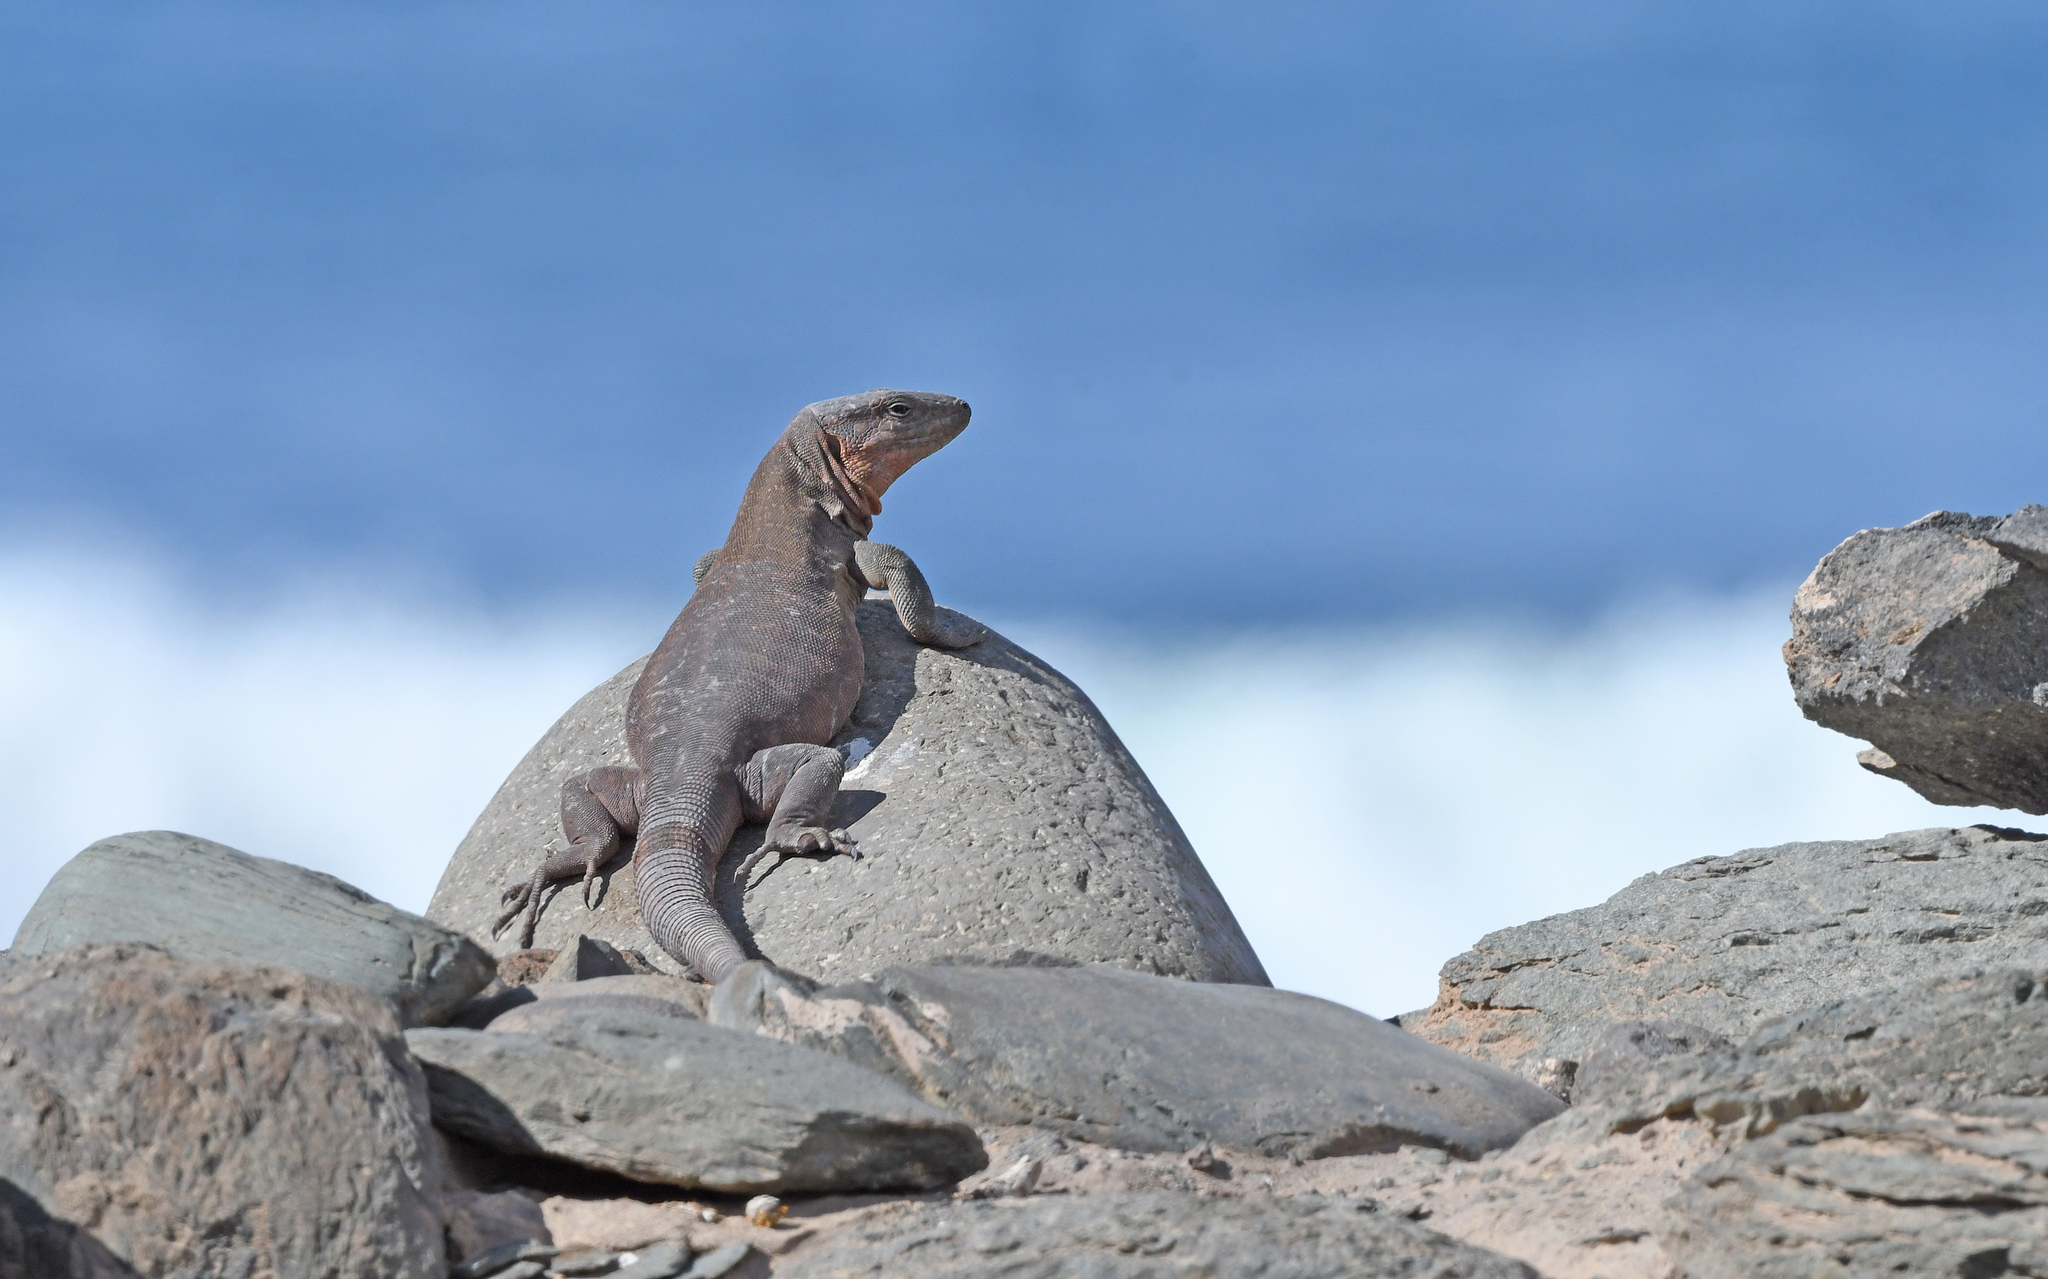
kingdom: Animalia
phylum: Chordata
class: Squamata
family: Lacertidae
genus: Gallotia
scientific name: Gallotia stehlini
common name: Gran canaria giant lizard
